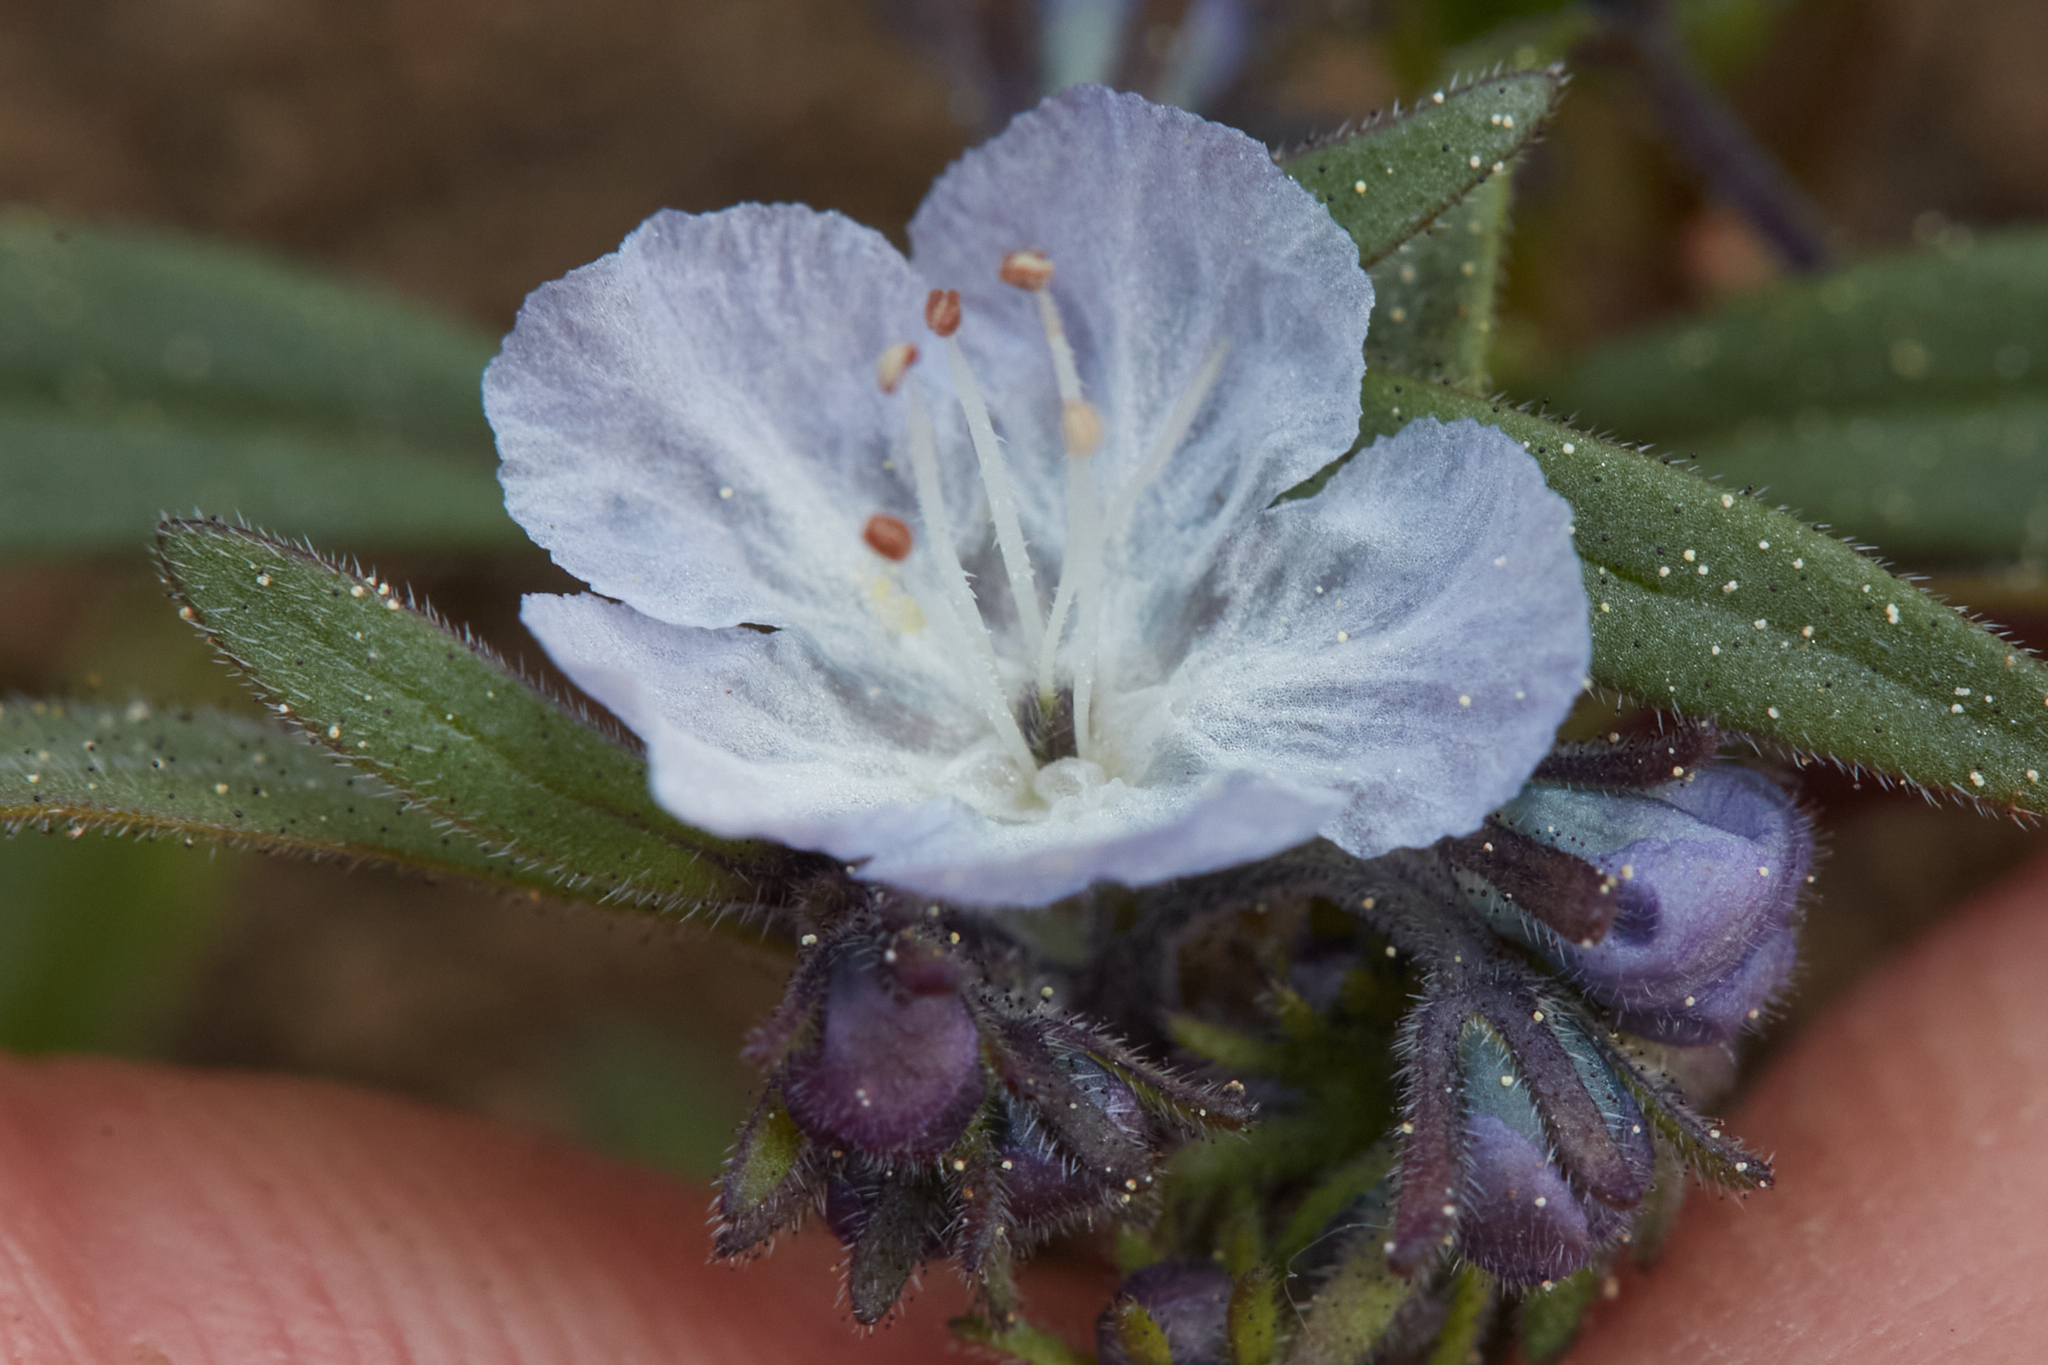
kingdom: Plantae
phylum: Tracheophyta
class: Magnoliopsida
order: Boraginales
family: Hydrophyllaceae
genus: Phacelia
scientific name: Phacelia pringlei
